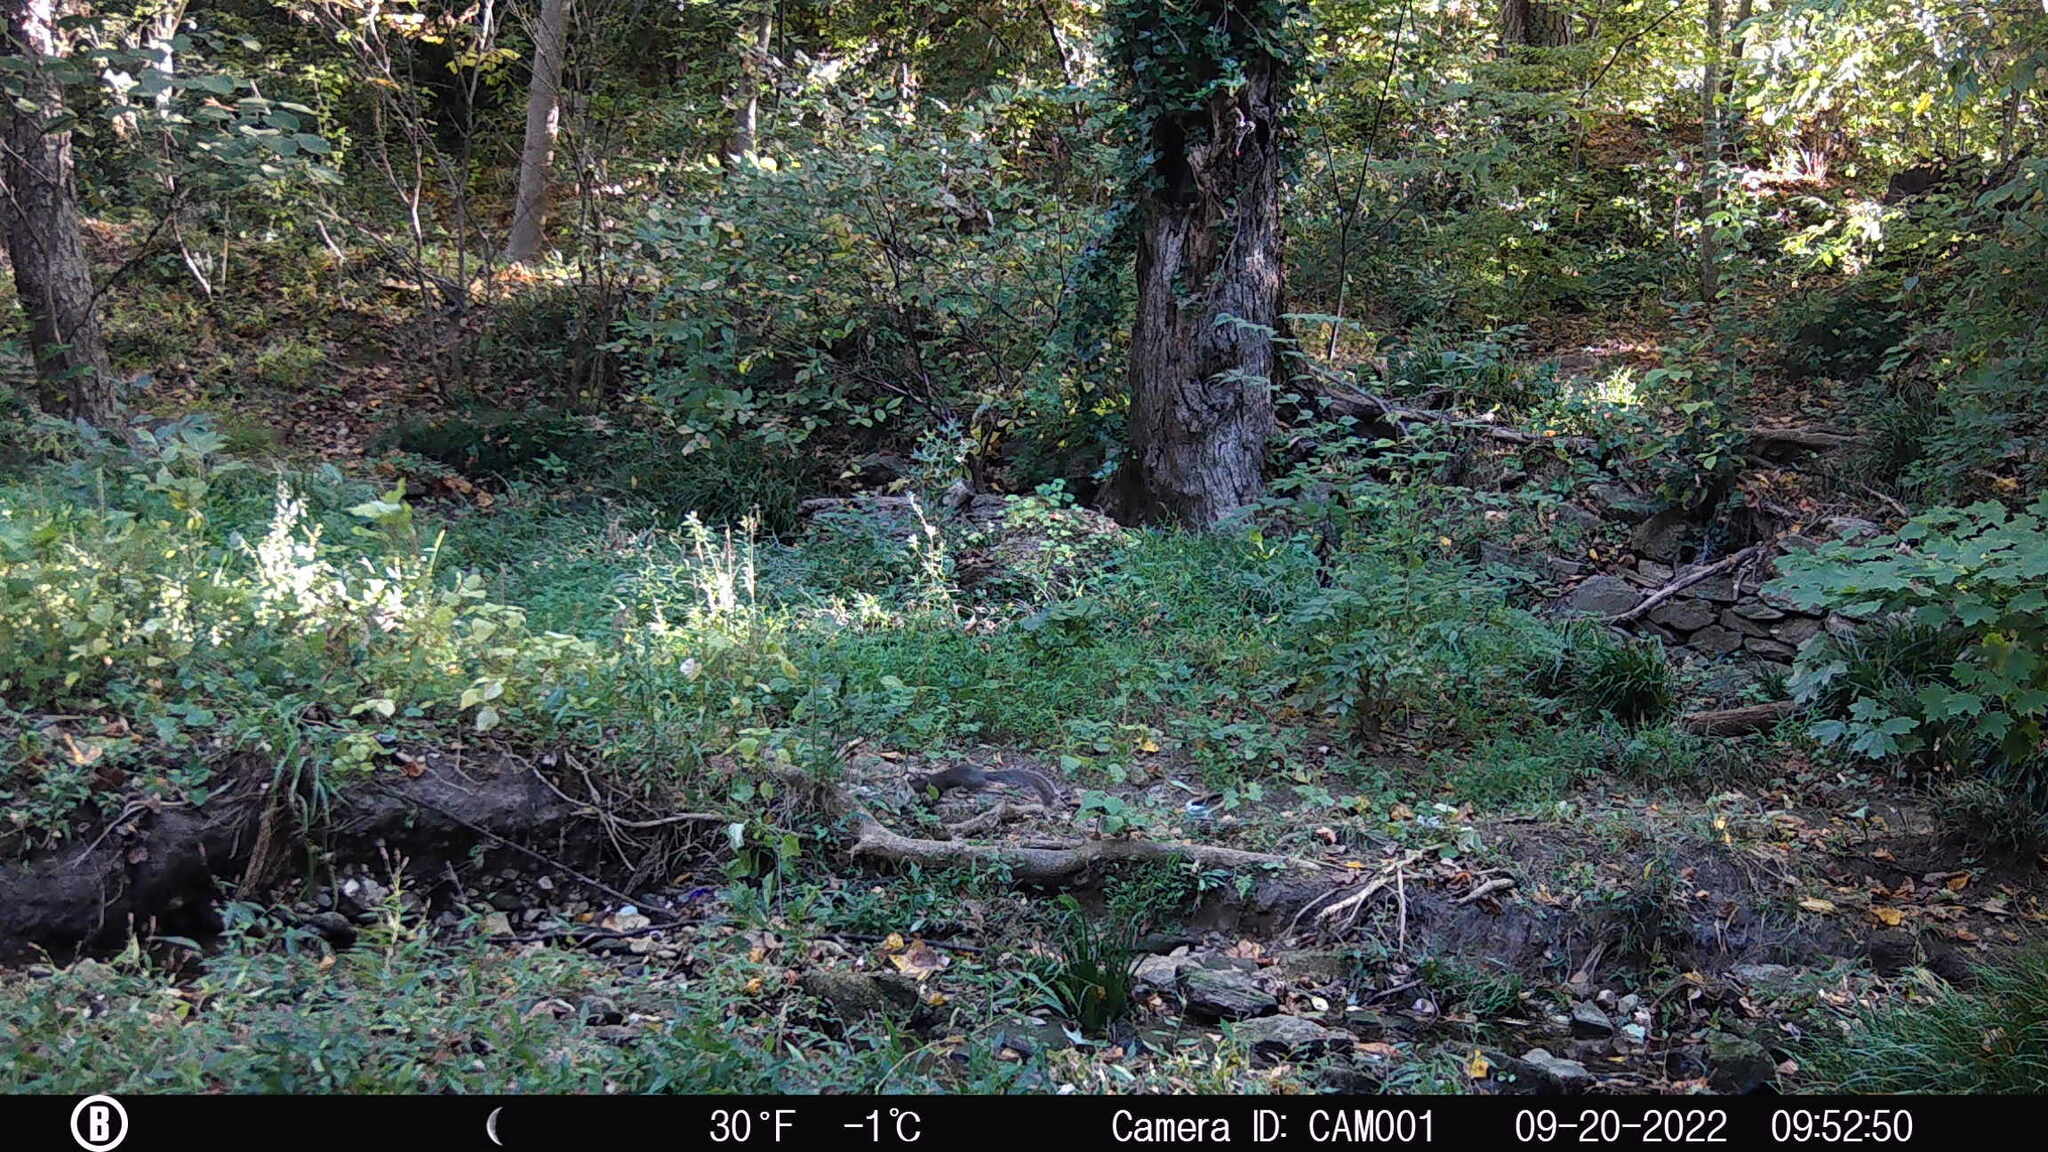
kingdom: Animalia
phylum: Chordata
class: Mammalia
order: Rodentia
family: Sciuridae
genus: Sciurus
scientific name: Sciurus carolinensis
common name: Eastern gray squirrel
